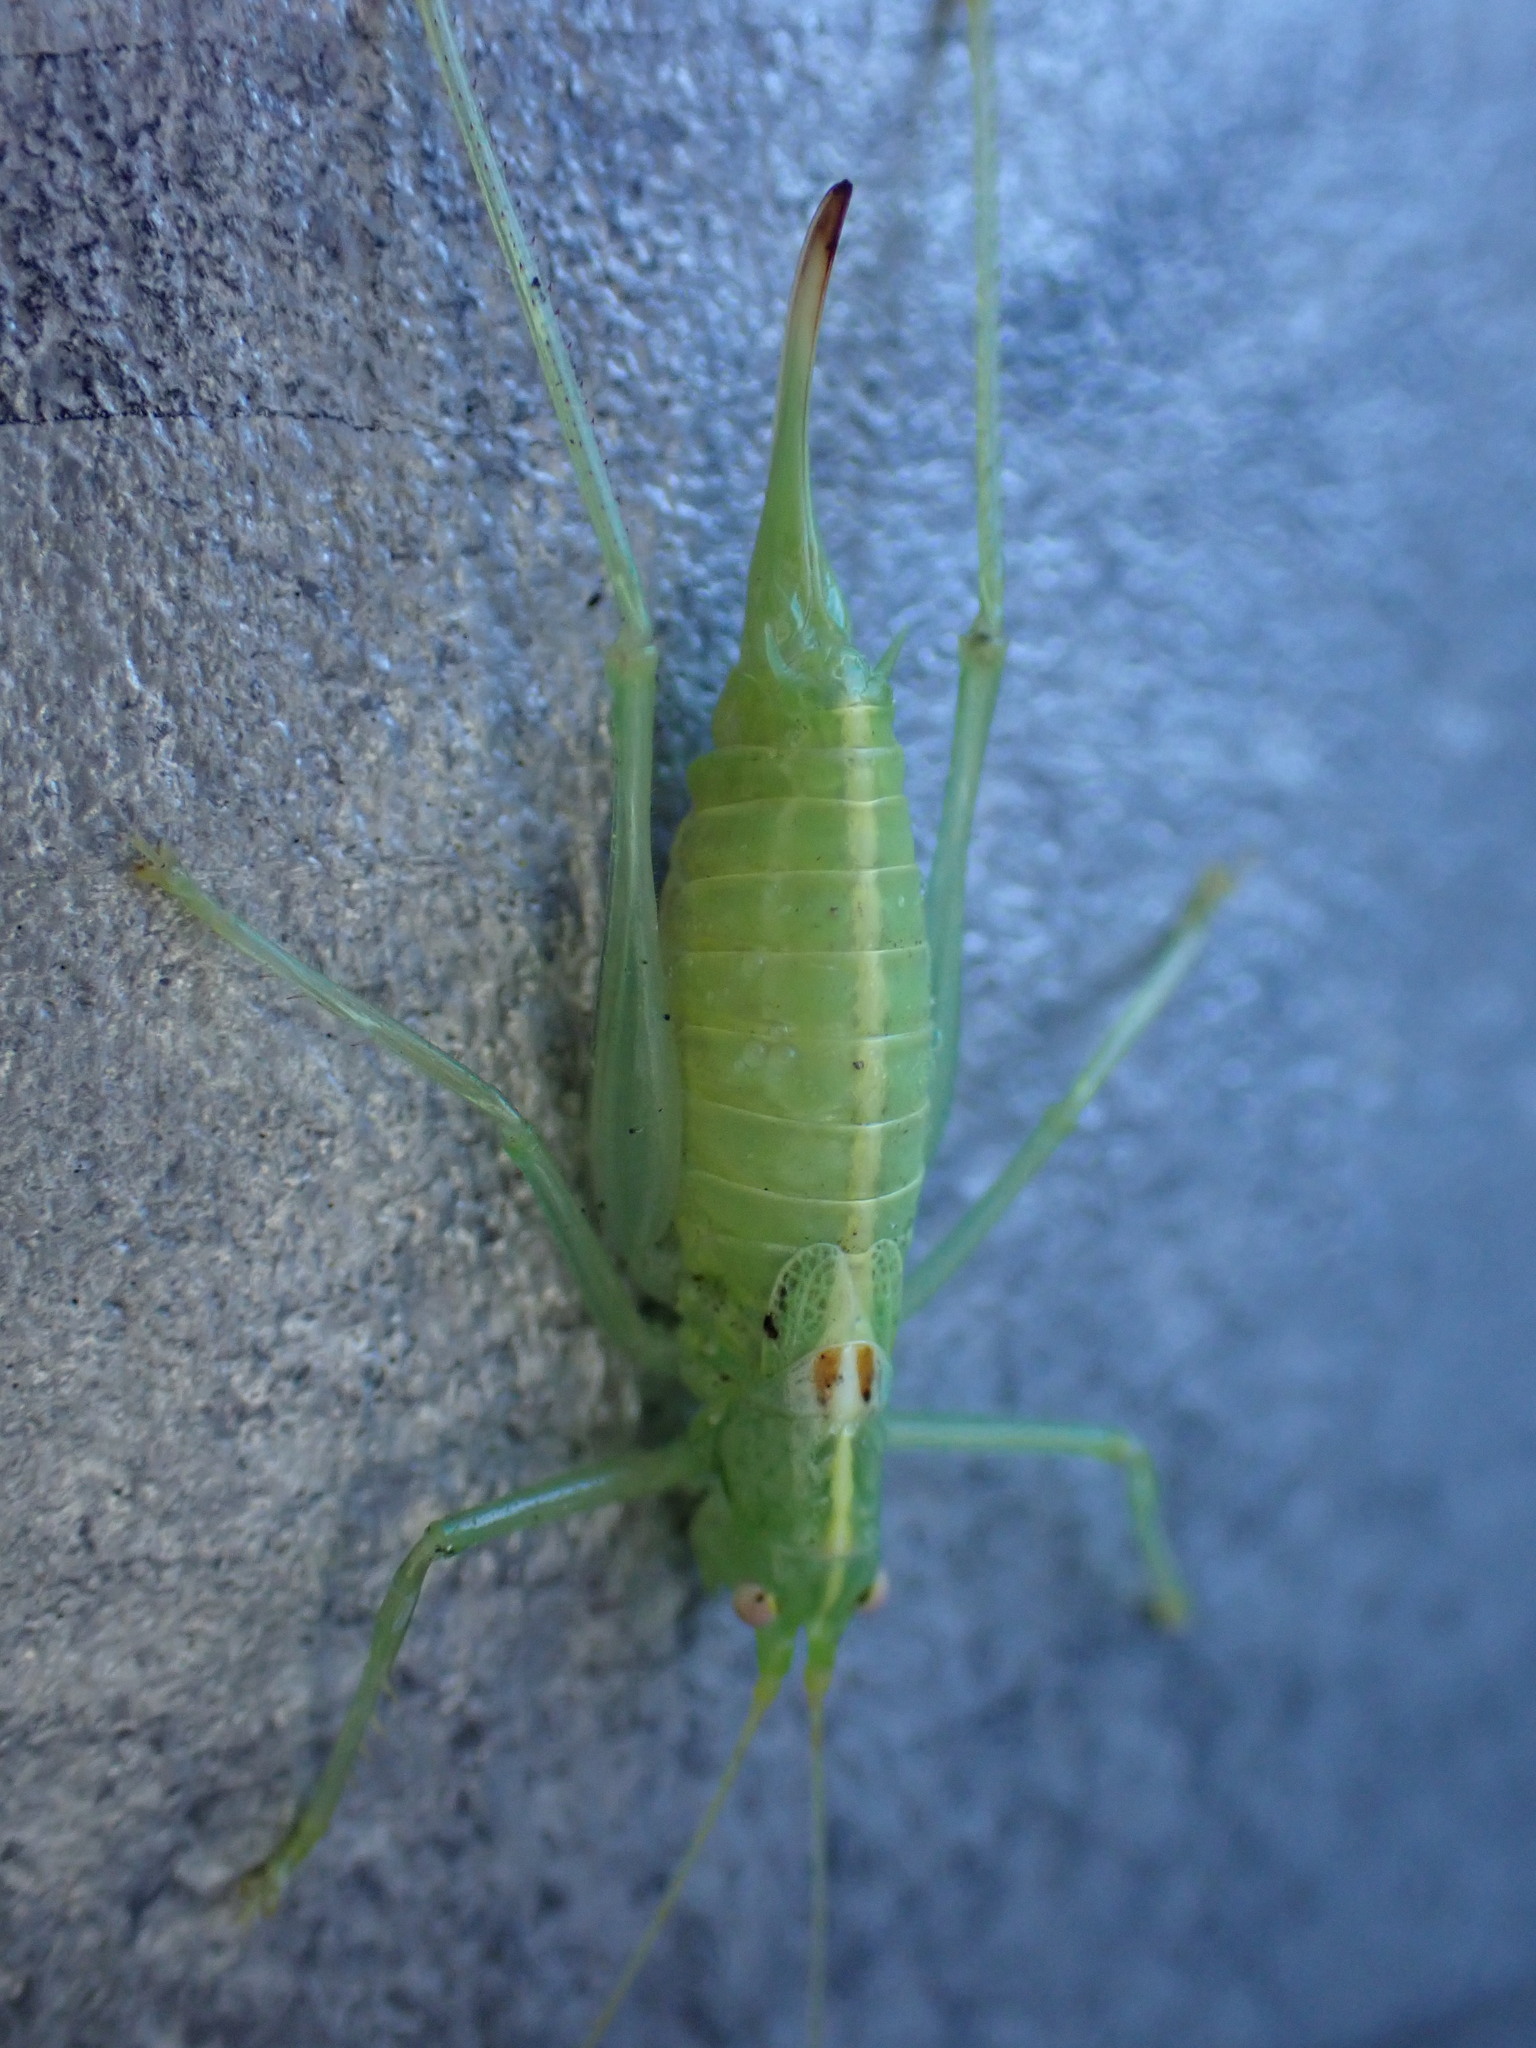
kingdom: Animalia
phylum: Arthropoda
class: Insecta
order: Orthoptera
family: Tettigoniidae
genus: Meconema
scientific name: Meconema meridionale
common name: Southern oak bush-cricket
